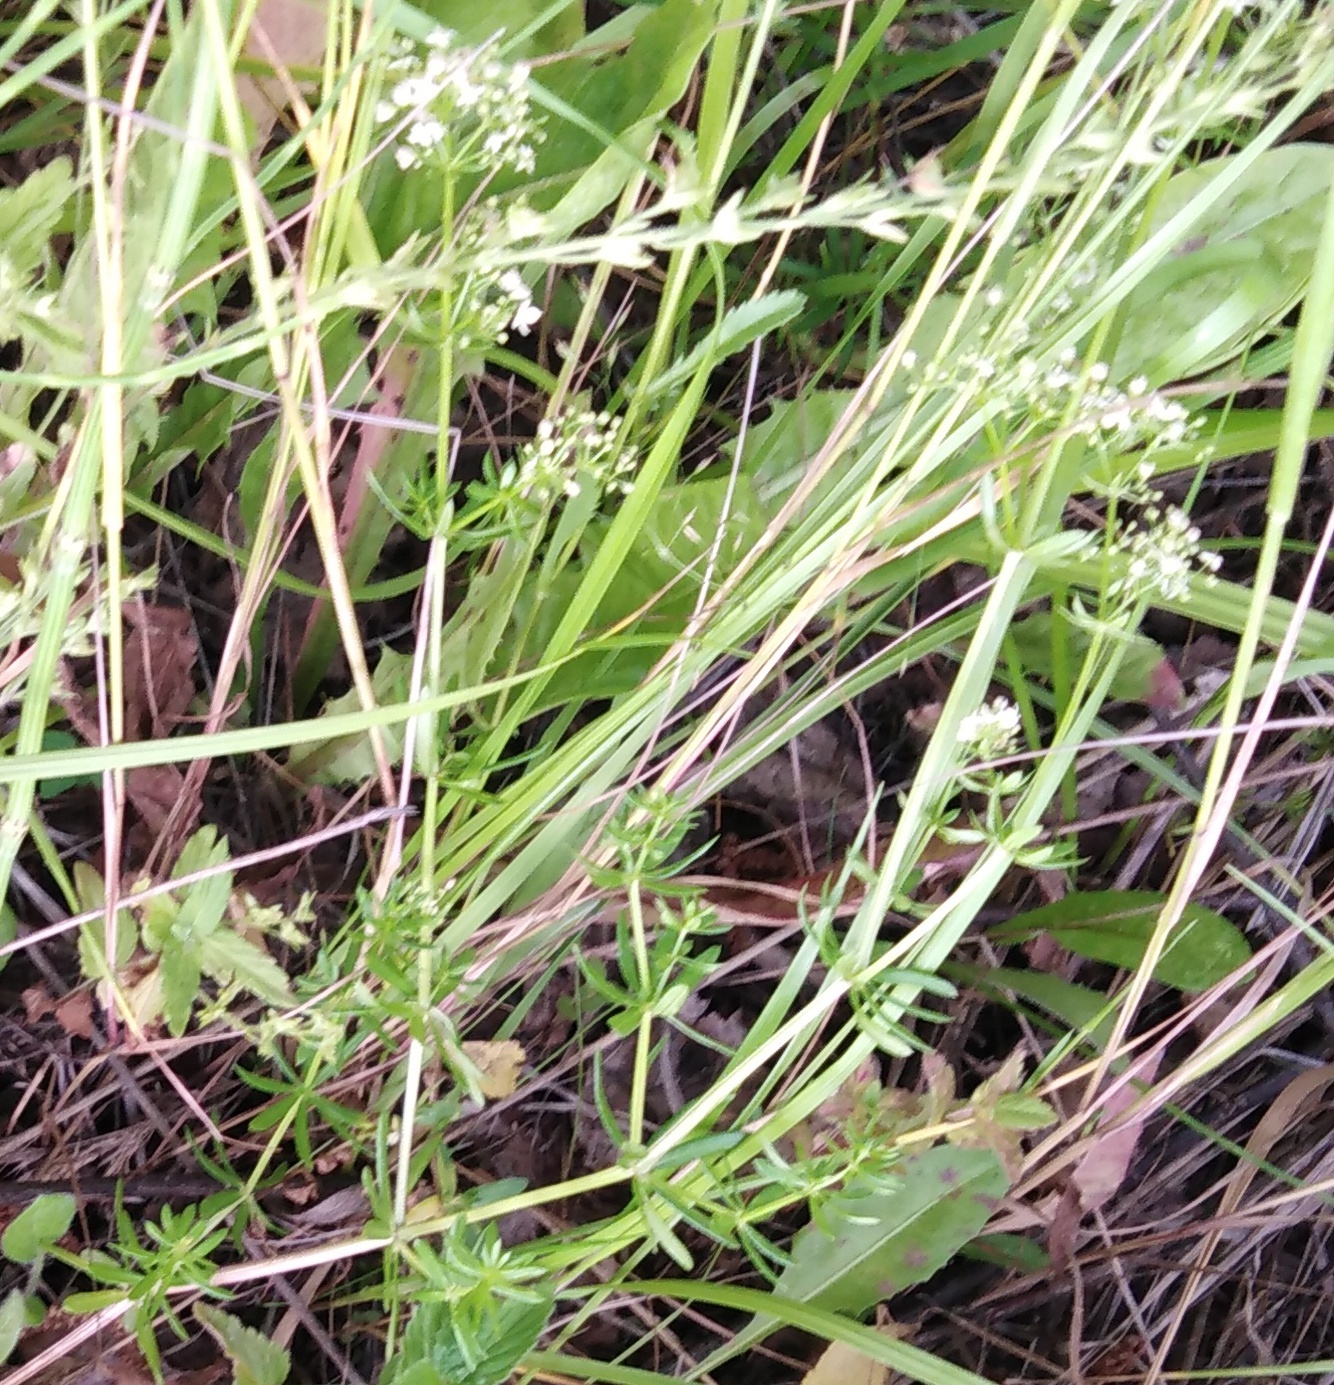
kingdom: Plantae
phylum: Tracheophyta
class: Magnoliopsida
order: Gentianales
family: Rubiaceae
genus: Galium
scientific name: Galium mollugo
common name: Hedge bedstraw
